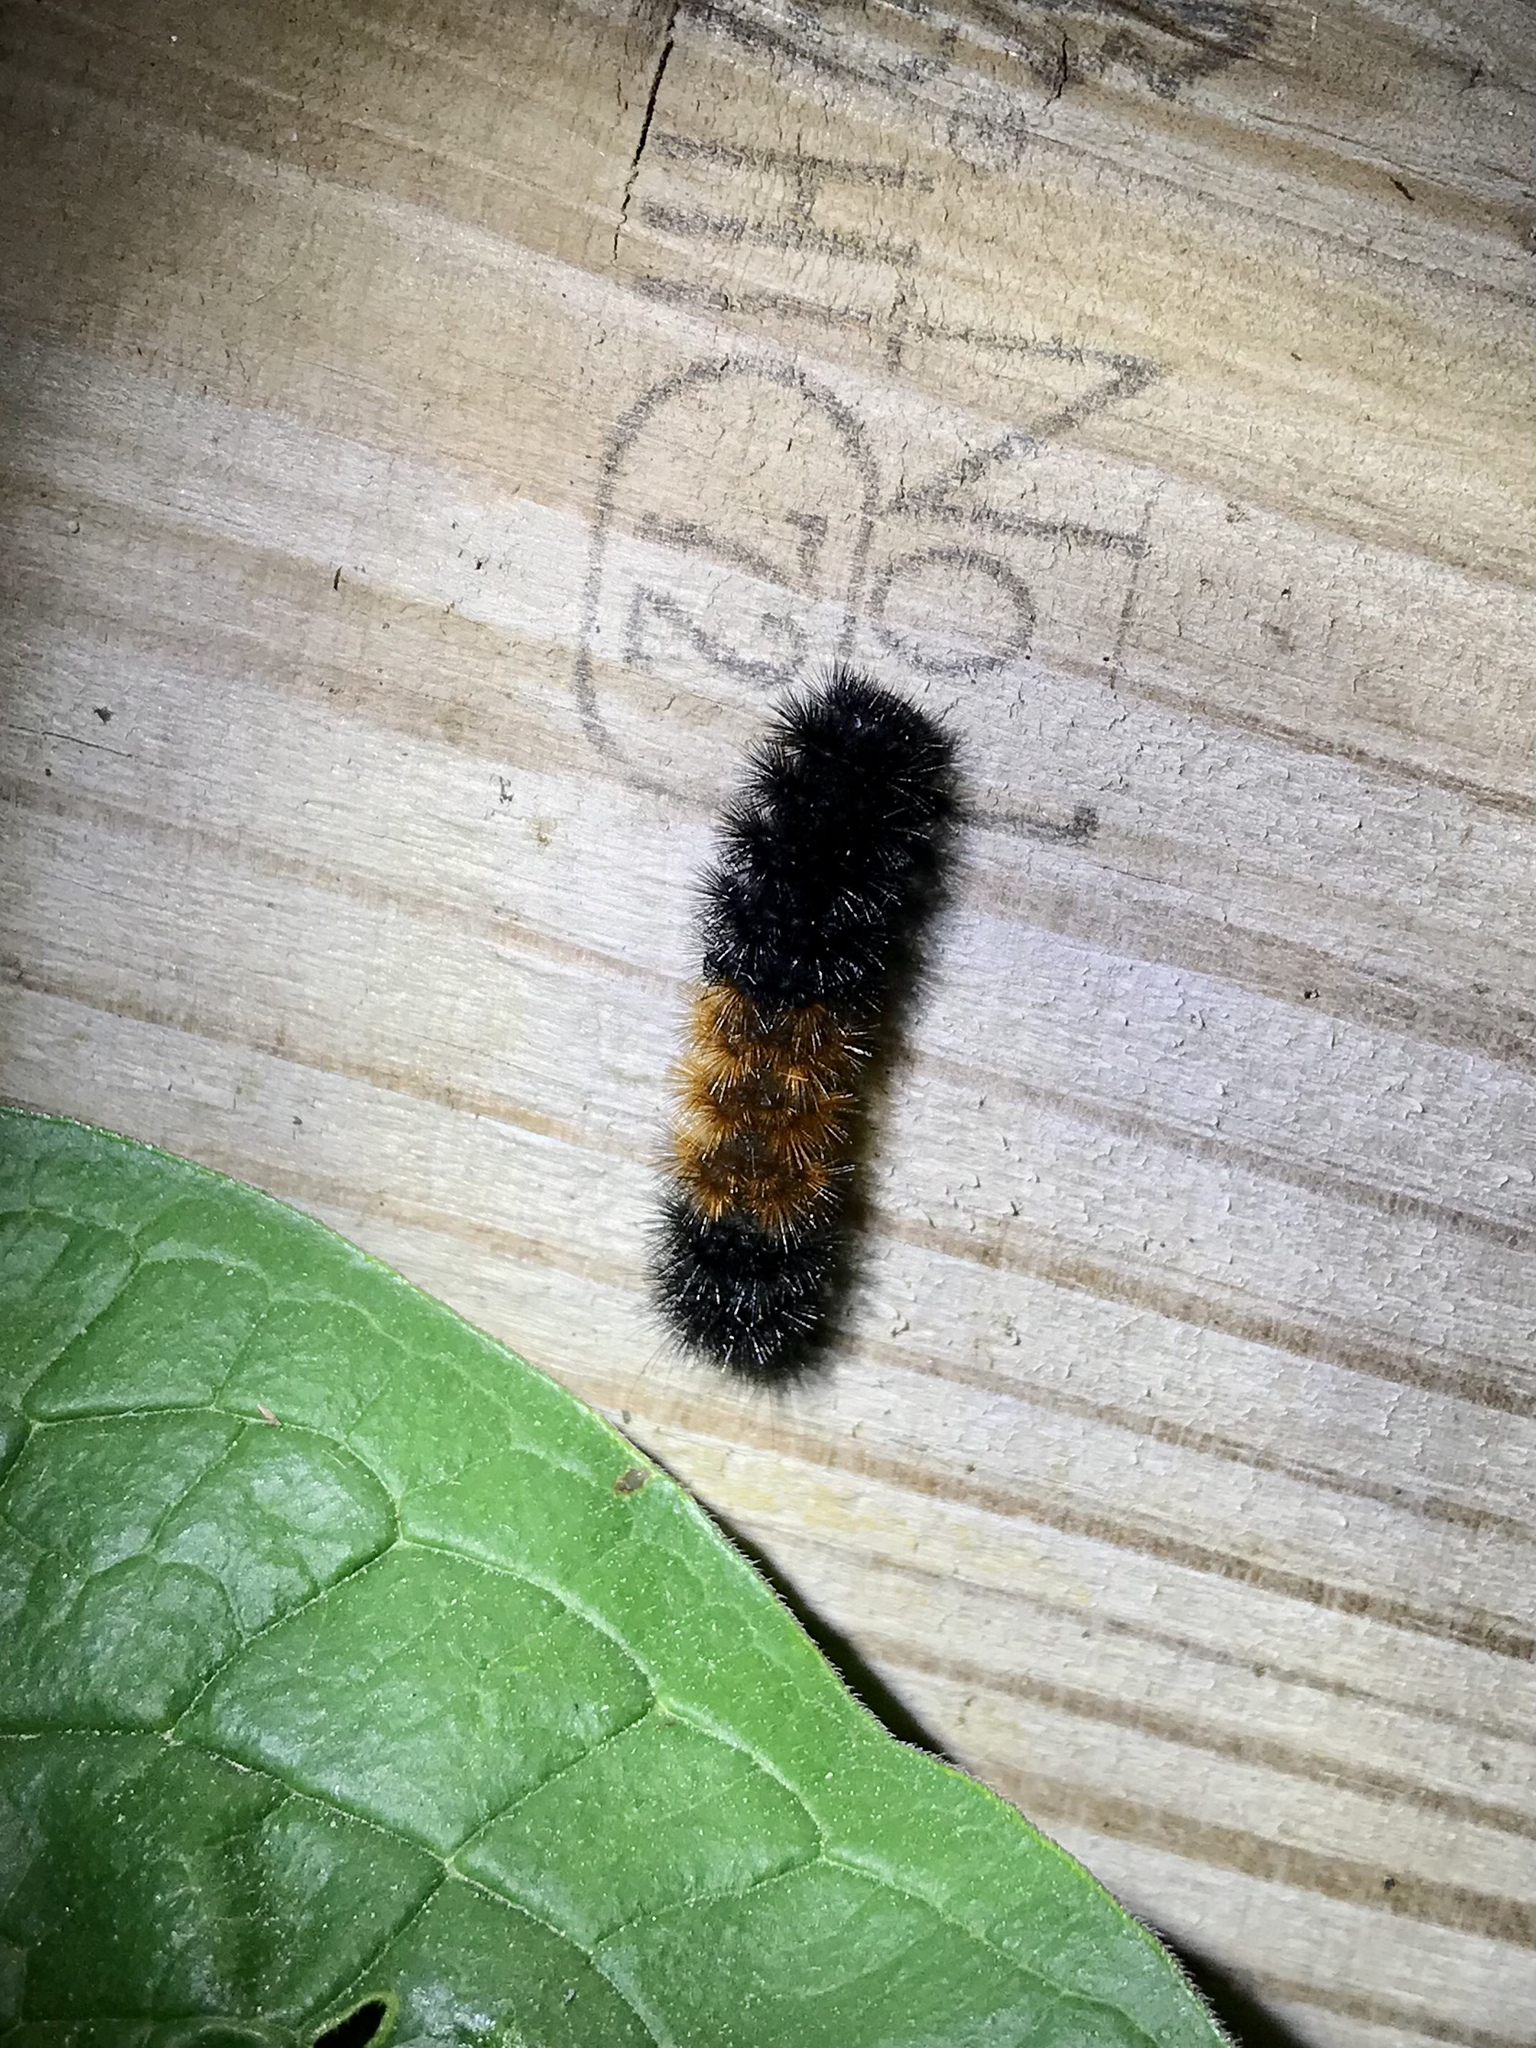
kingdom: Animalia
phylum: Arthropoda
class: Insecta
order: Lepidoptera
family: Erebidae
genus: Pyrrharctia
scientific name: Pyrrharctia isabella
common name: Isabella tiger moth
